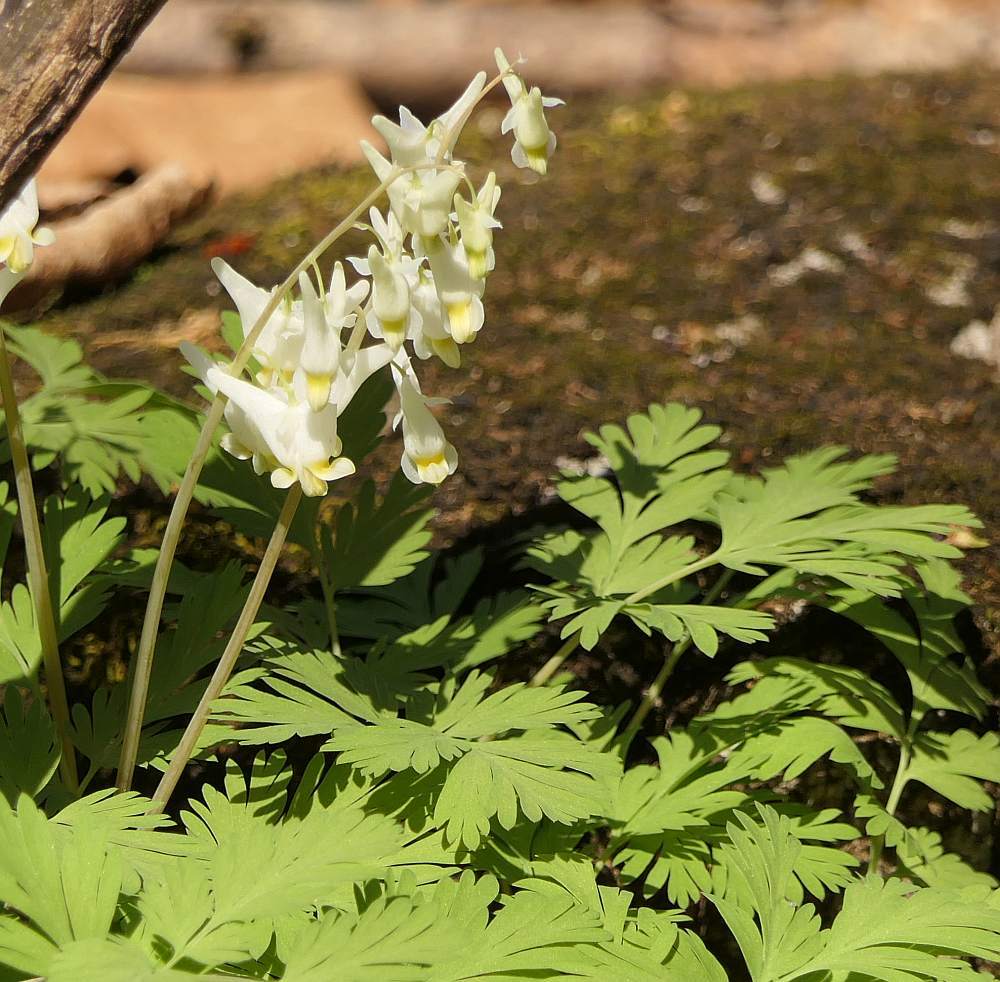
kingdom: Plantae
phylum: Tracheophyta
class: Magnoliopsida
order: Ranunculales
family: Papaveraceae
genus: Dicentra
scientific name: Dicentra cucullaria
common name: Dutchman's breeches
